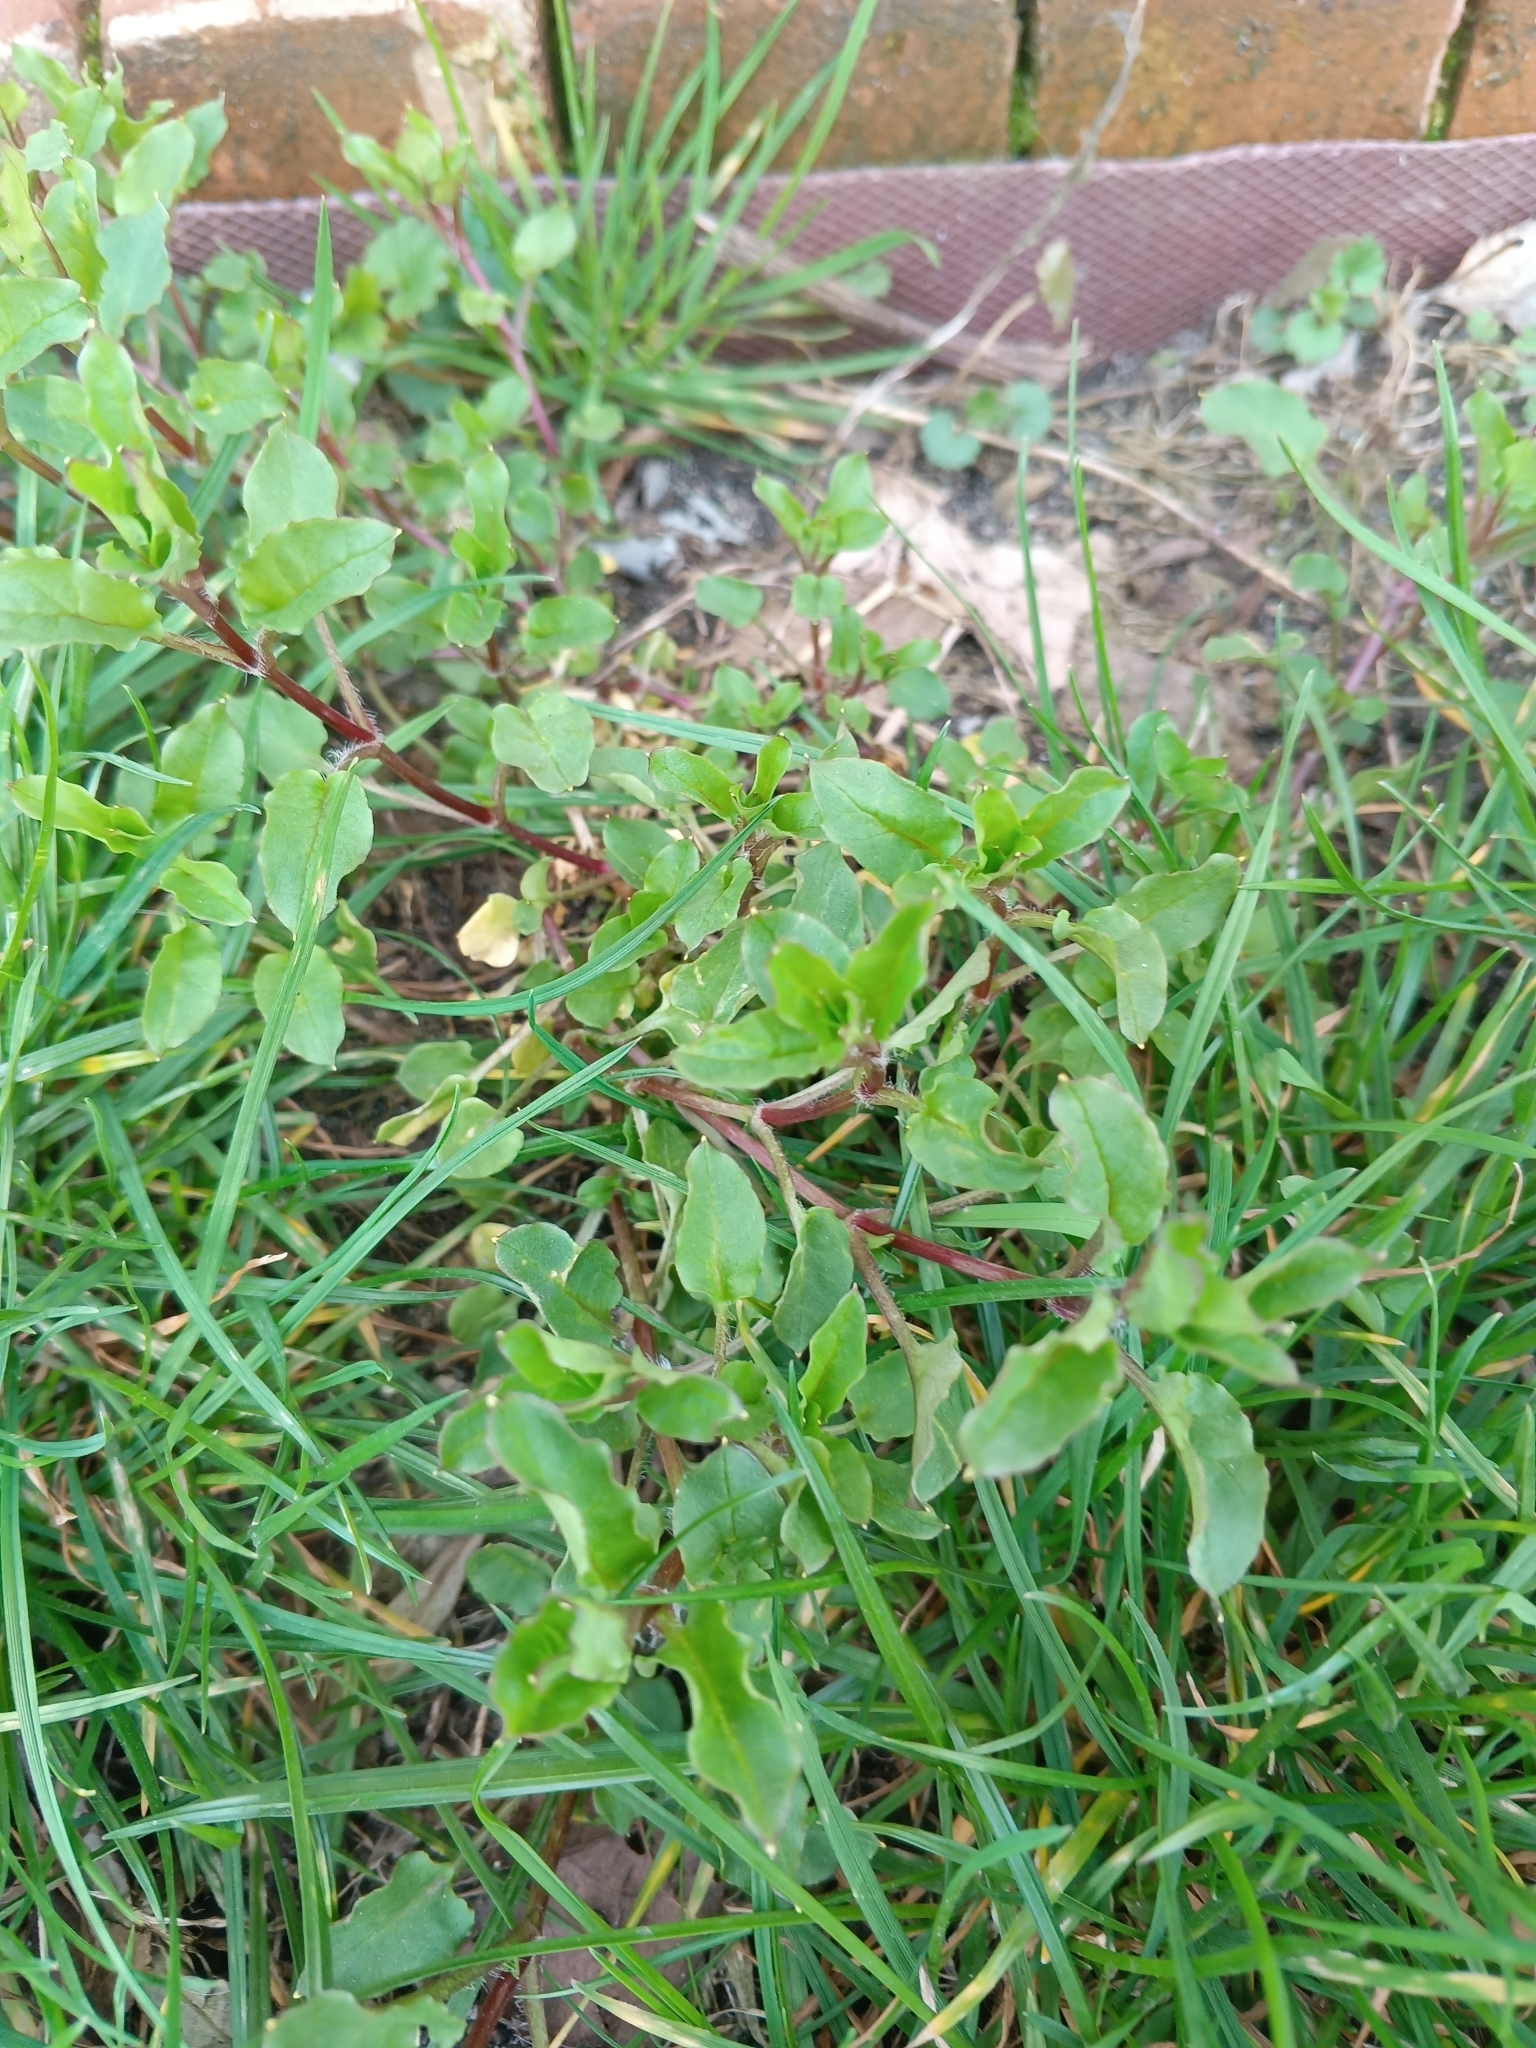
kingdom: Plantae
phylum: Tracheophyta
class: Magnoliopsida
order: Caryophyllales
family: Caryophyllaceae
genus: Stellaria
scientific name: Stellaria aquatica
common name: Water chickweed
